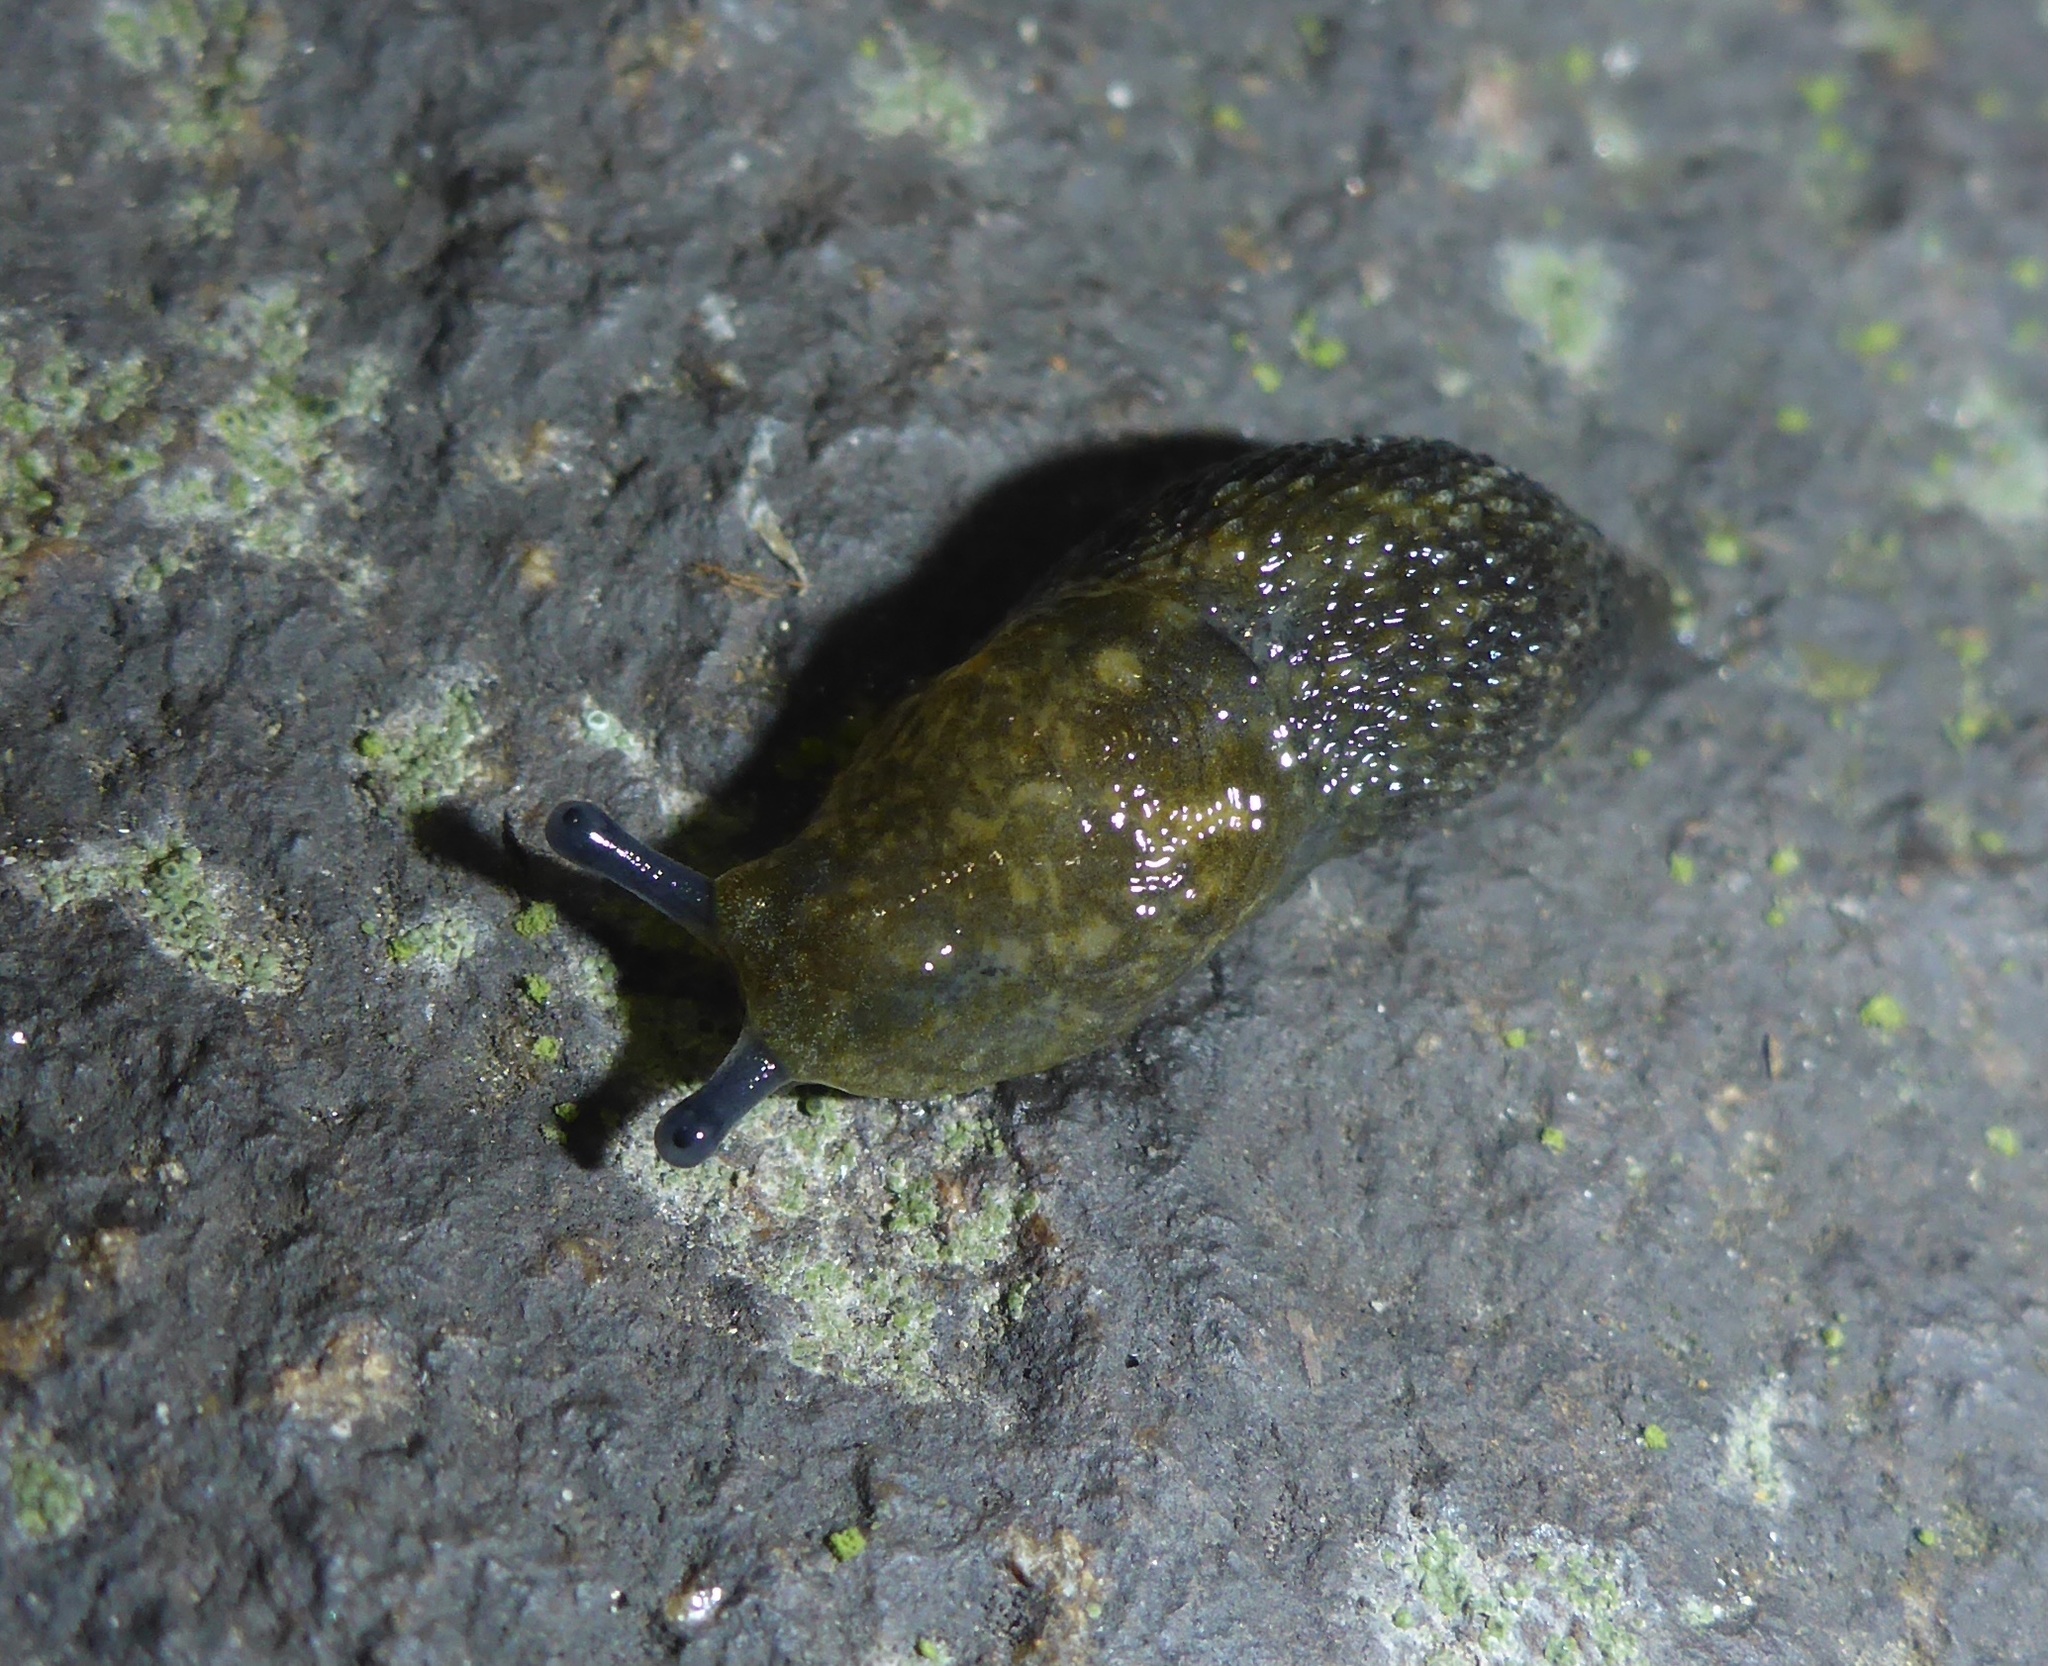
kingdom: Animalia
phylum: Mollusca
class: Gastropoda
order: Stylommatophora
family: Limacidae
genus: Limacus
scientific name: Limacus flavus
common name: Yellow gardenslug
